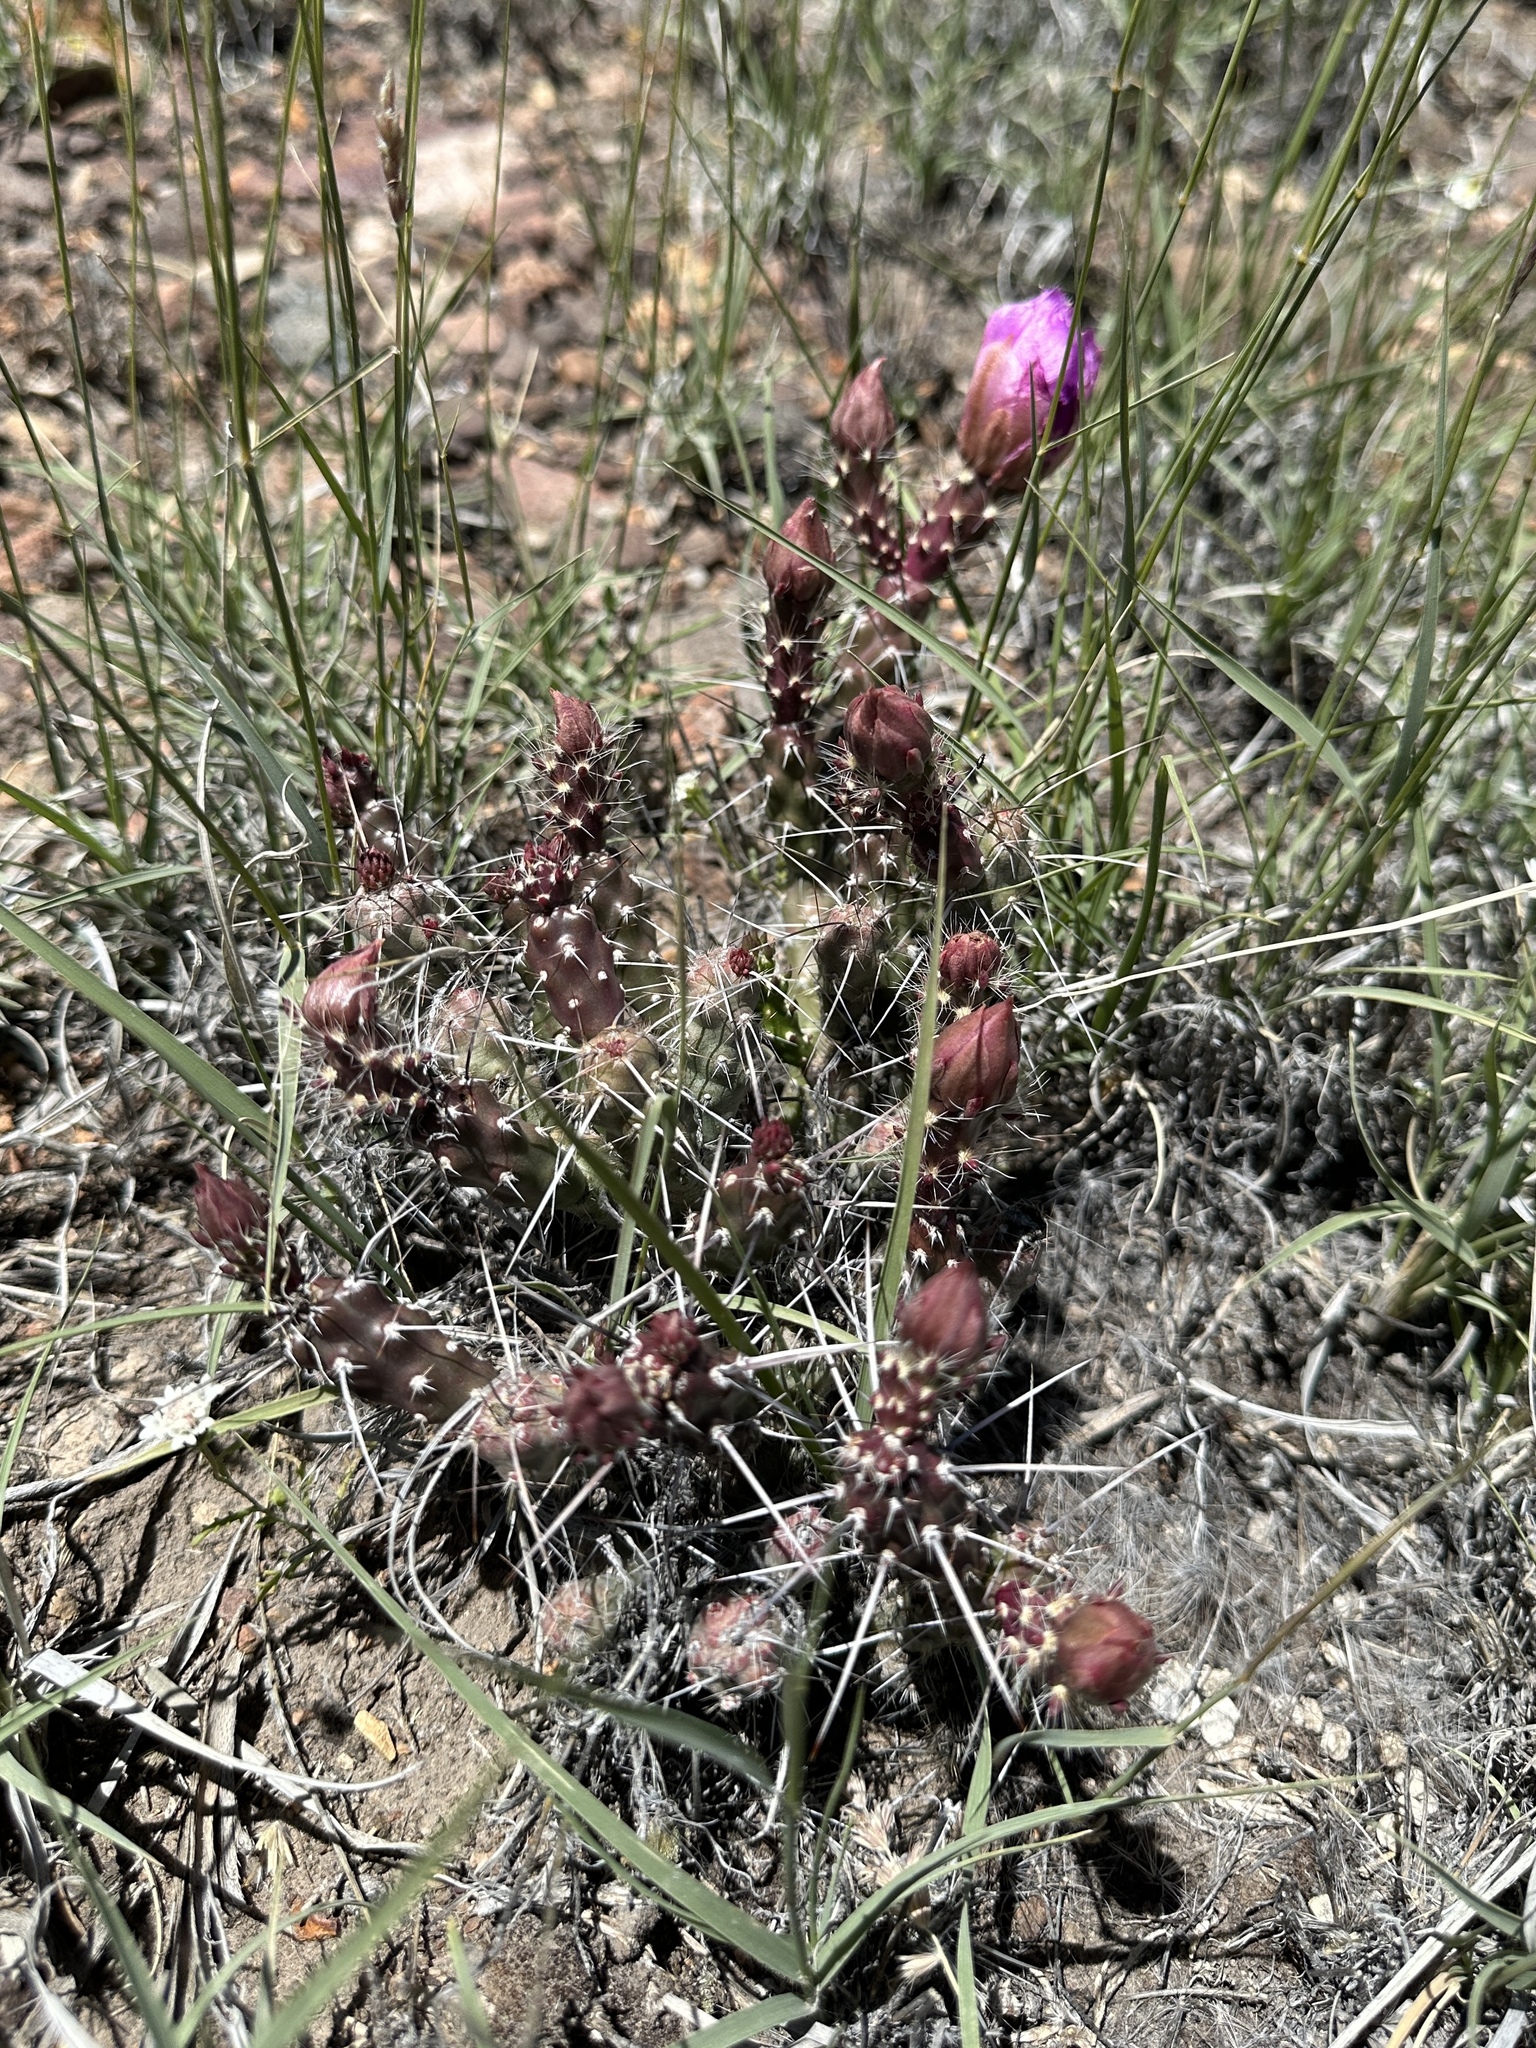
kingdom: Plantae
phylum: Tracheophyta
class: Magnoliopsida
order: Caryophyllales
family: Cactaceae
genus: Micropuntia
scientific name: Micropuntia pulchella
